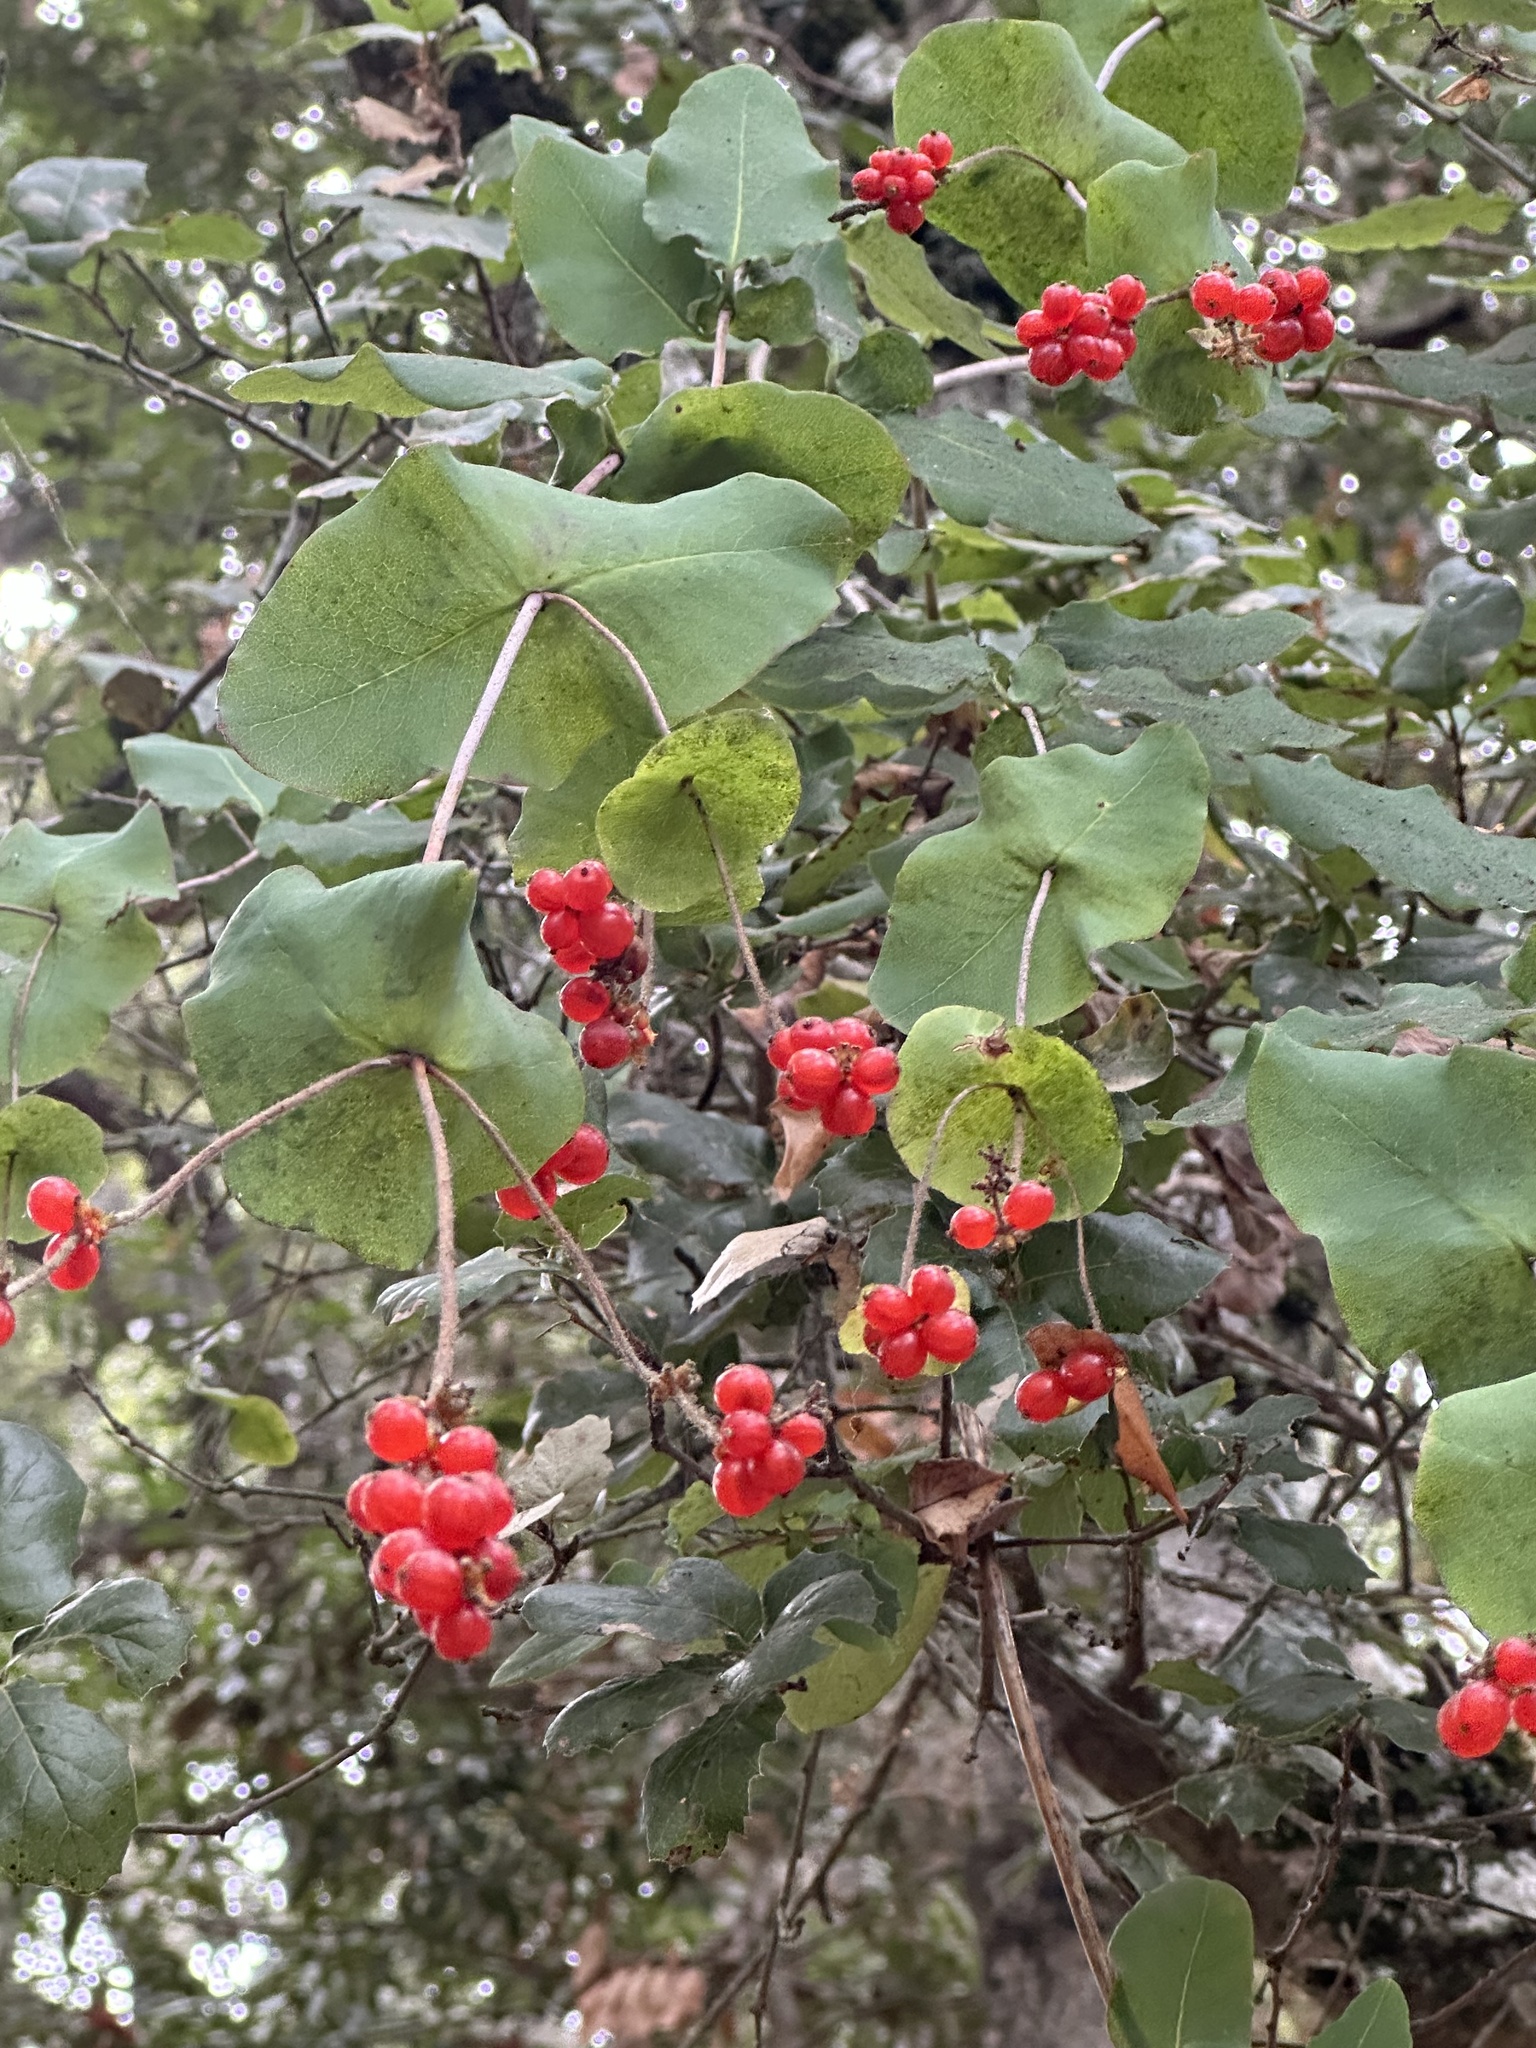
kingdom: Plantae
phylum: Tracheophyta
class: Magnoliopsida
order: Dipsacales
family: Caprifoliaceae
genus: Lonicera
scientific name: Lonicera hispidula
